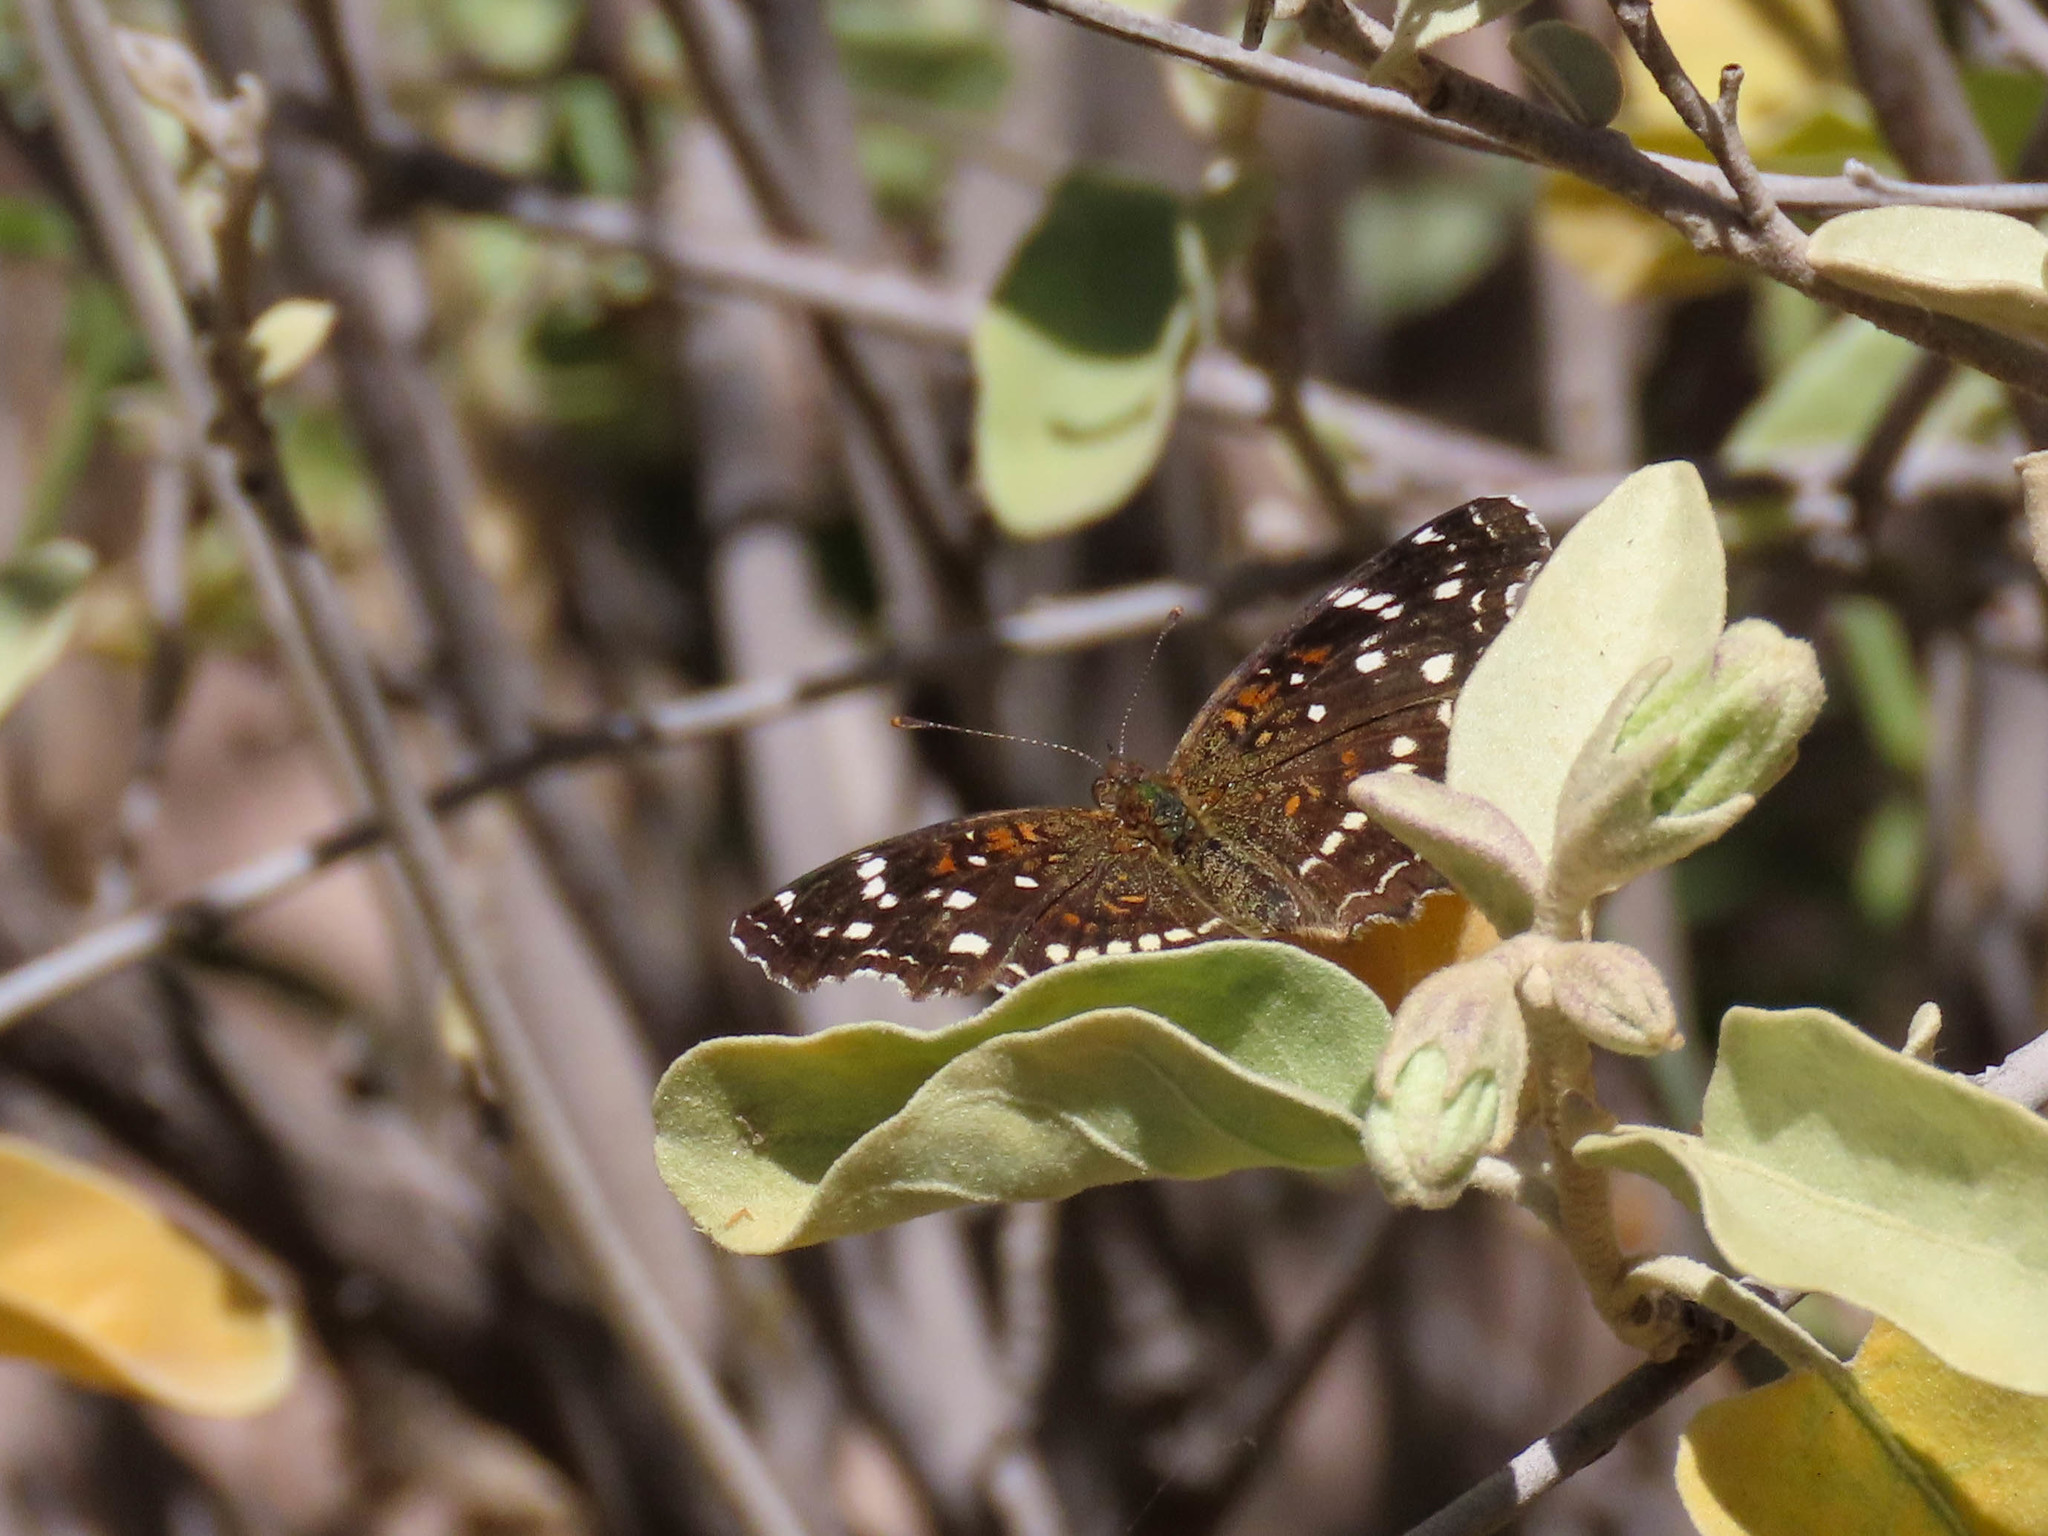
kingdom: Animalia
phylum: Arthropoda
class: Insecta
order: Lepidoptera
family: Nymphalidae
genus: Anthanassa
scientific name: Anthanassa texana
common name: Texan crescent
